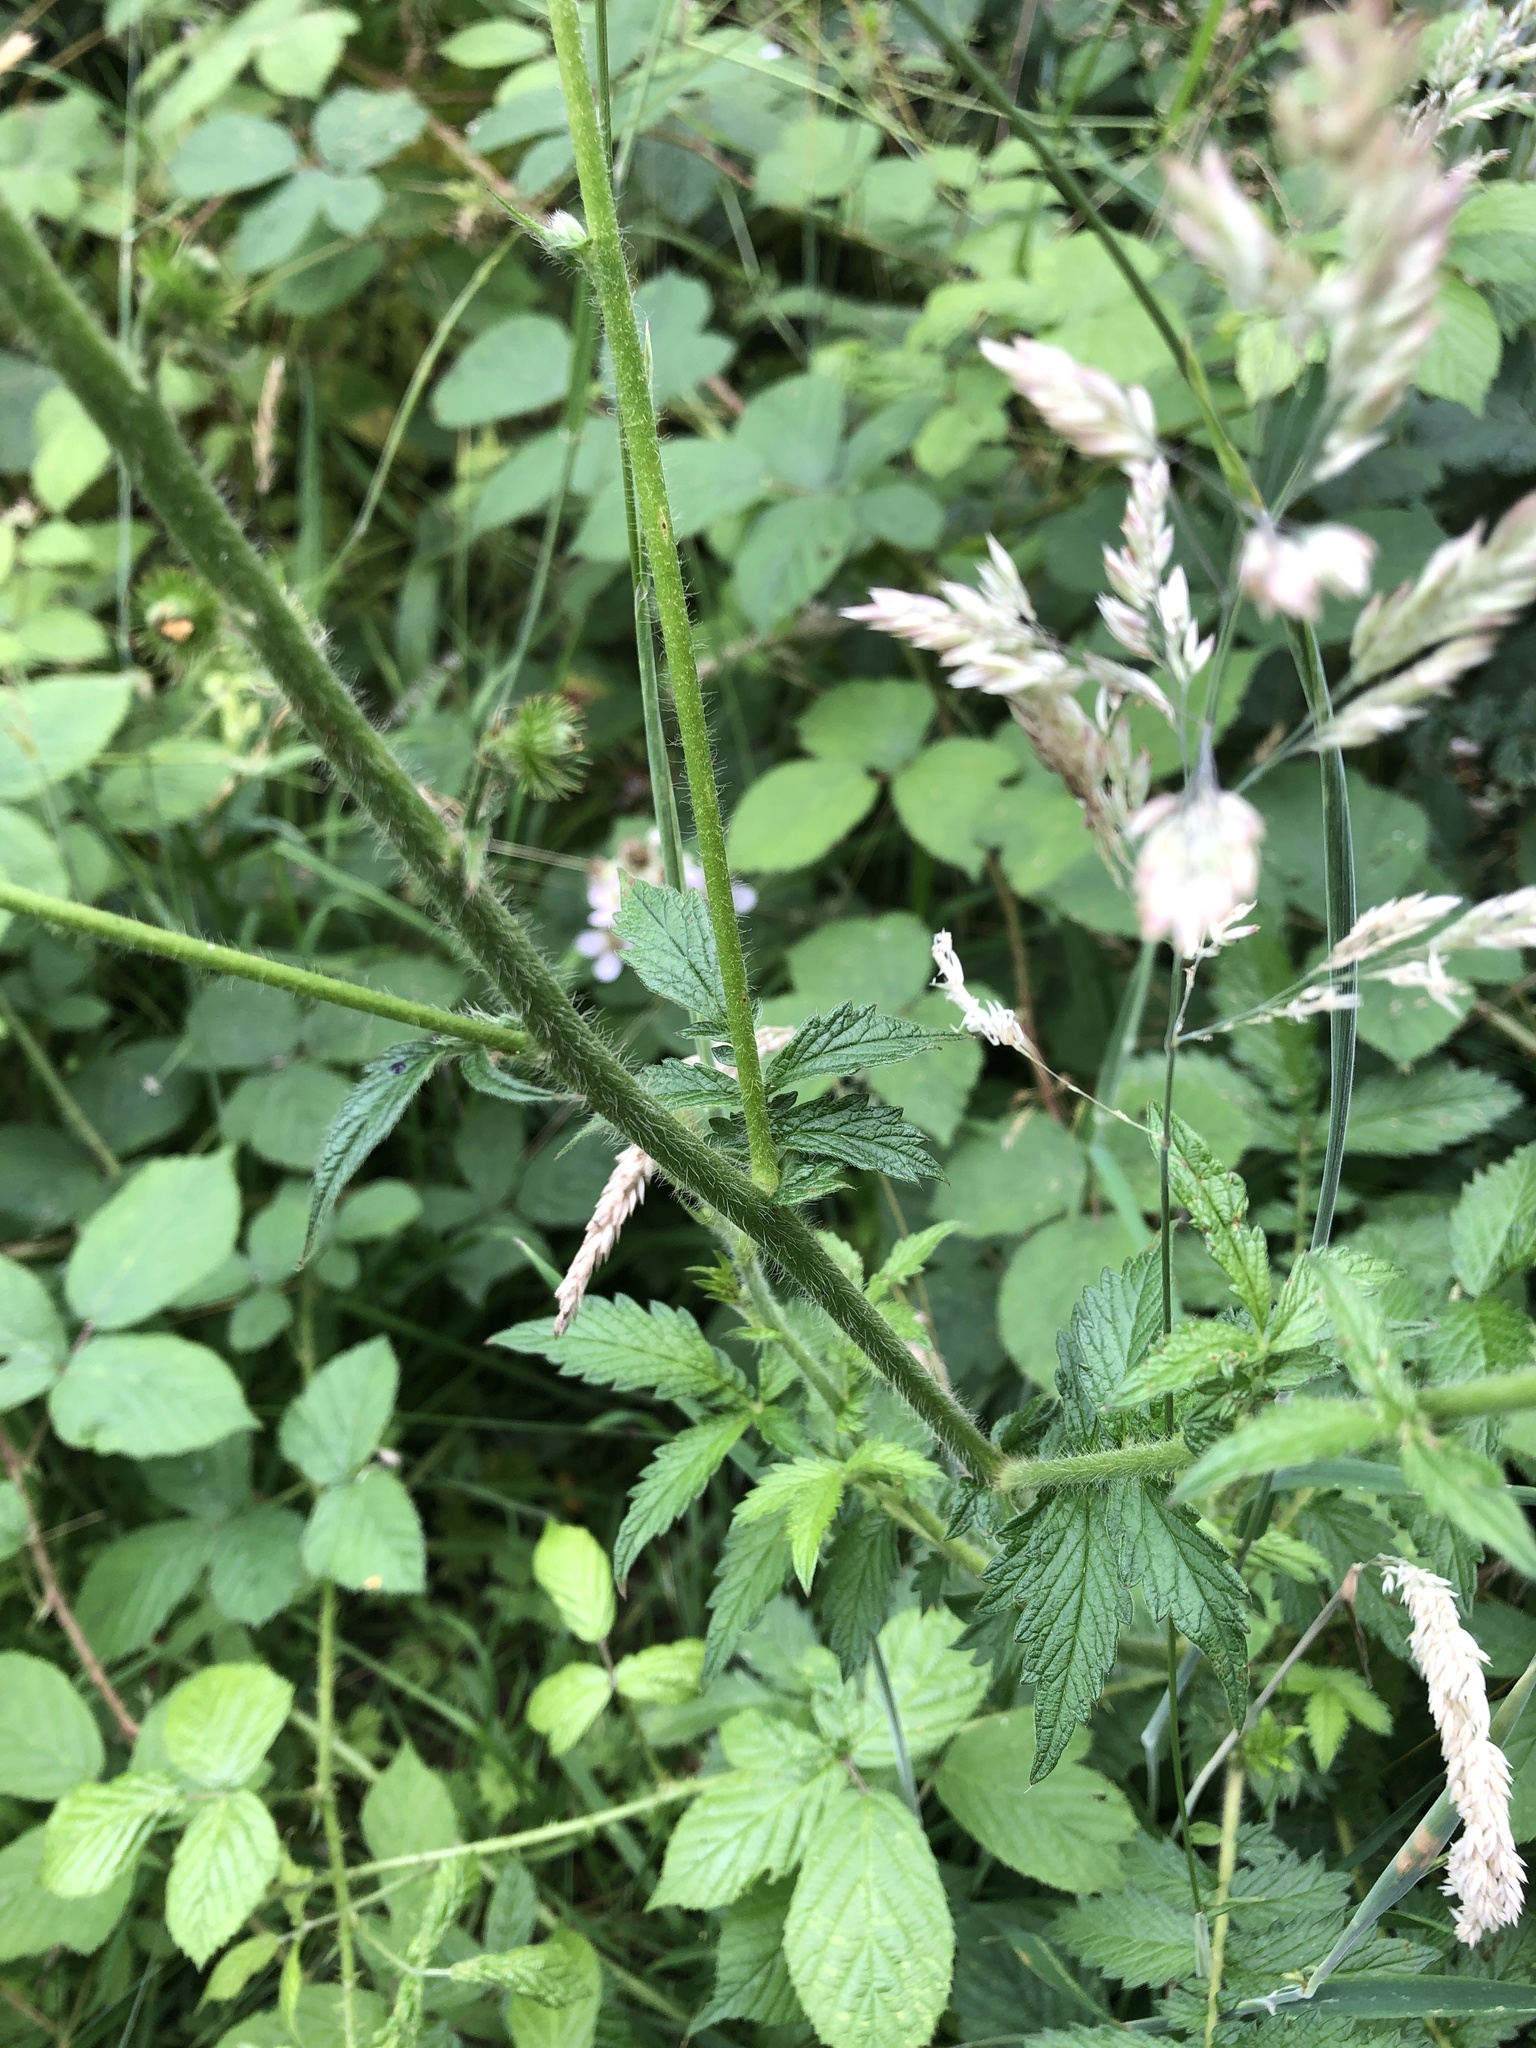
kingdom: Plantae
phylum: Tracheophyta
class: Magnoliopsida
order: Rosales
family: Rosaceae
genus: Agrimonia
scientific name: Agrimonia eupatoria
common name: Agrimony
